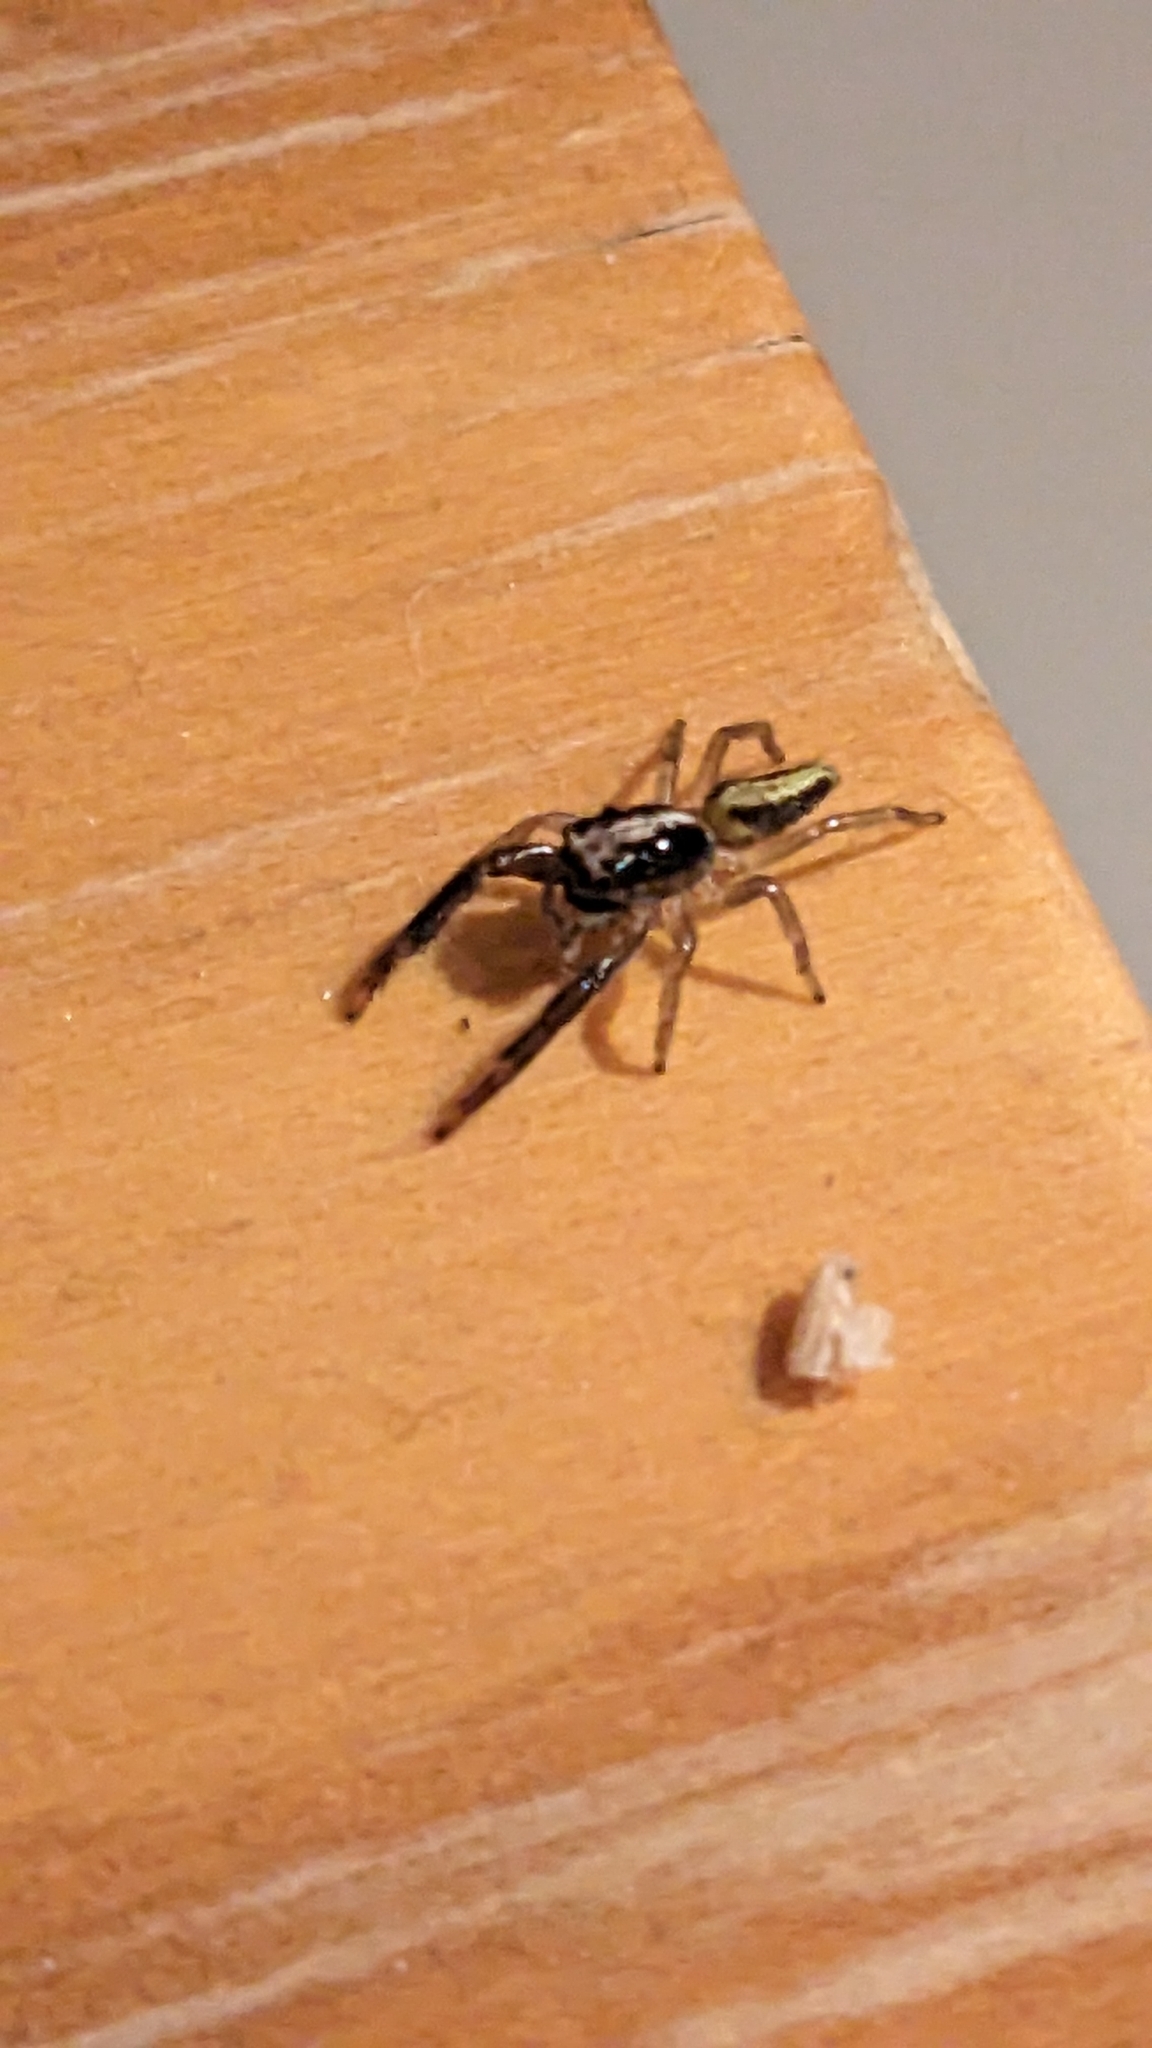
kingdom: Animalia
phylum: Arthropoda
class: Arachnida
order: Araneae
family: Salticidae
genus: Trite
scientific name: Trite planiceps
